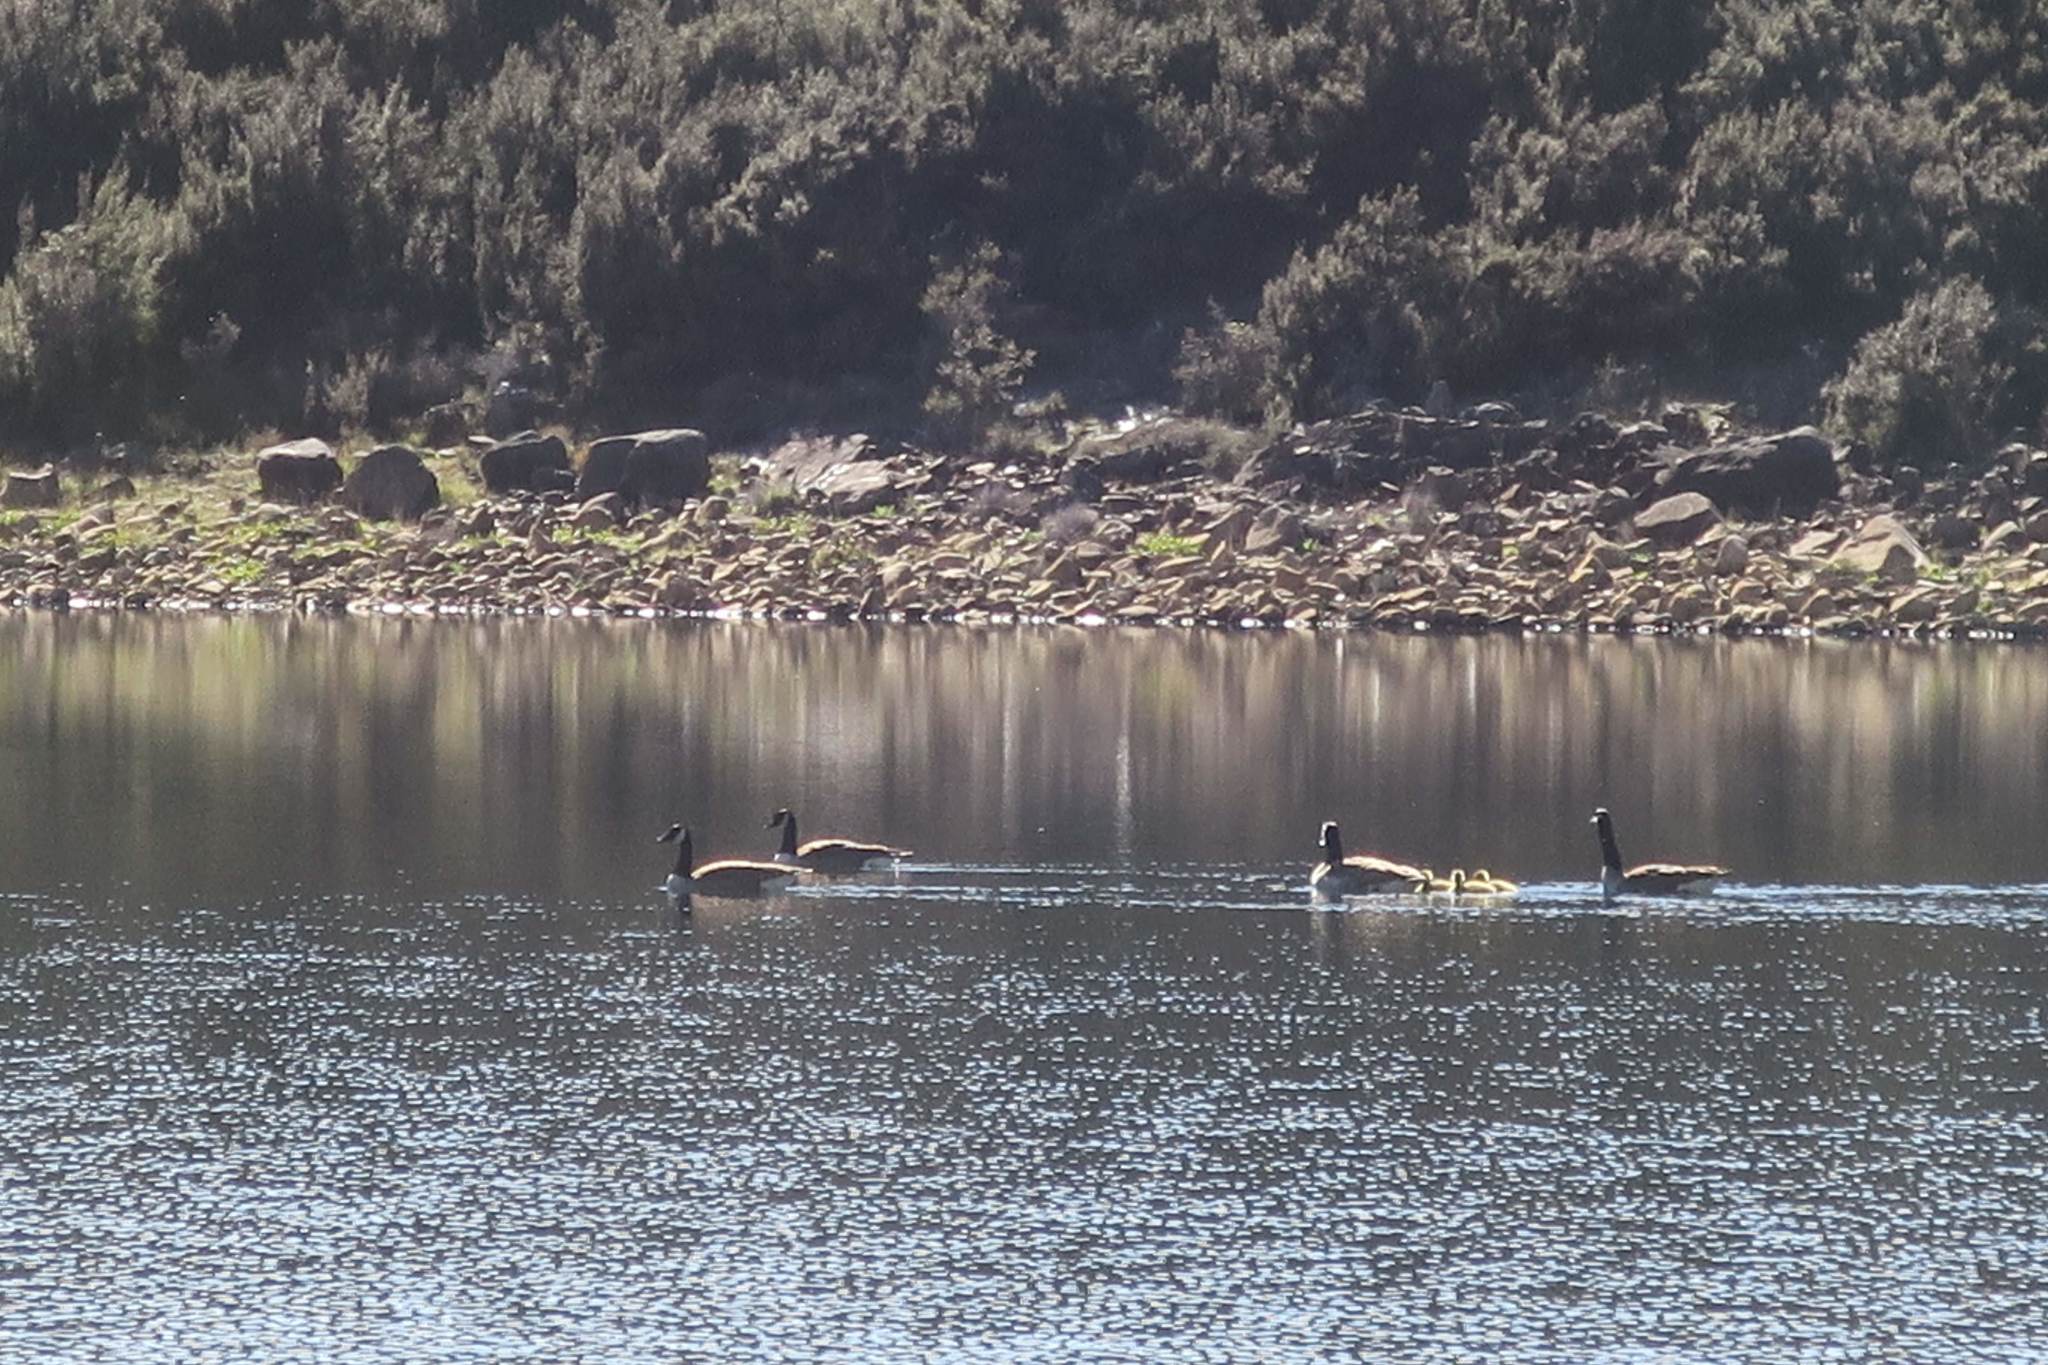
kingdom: Animalia
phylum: Chordata
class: Aves
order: Anseriformes
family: Anatidae
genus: Branta
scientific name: Branta canadensis
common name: Canada goose
